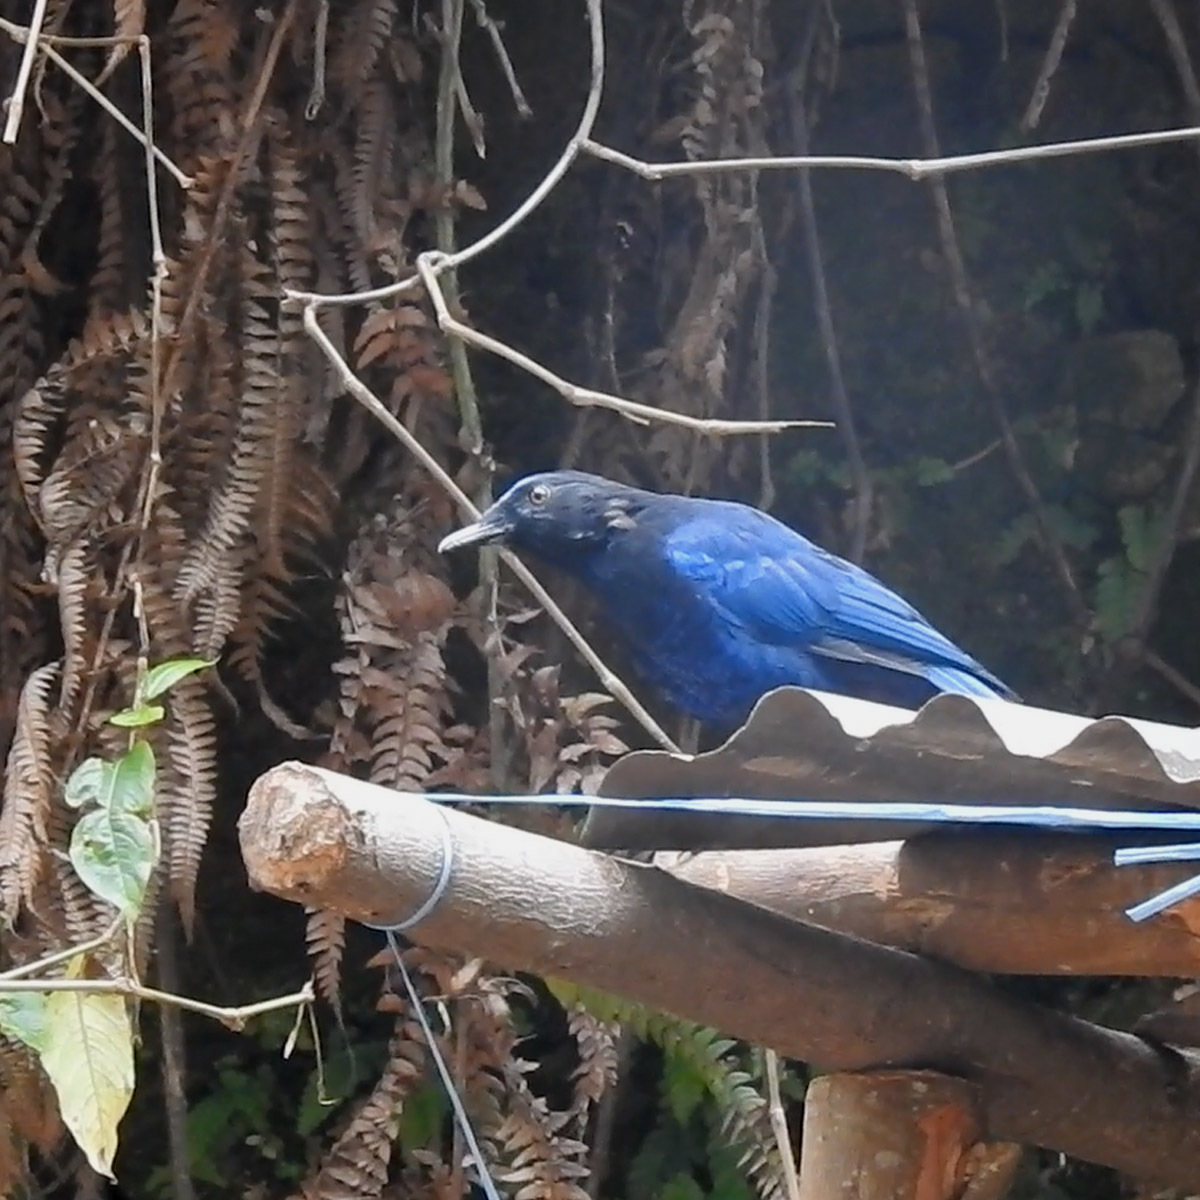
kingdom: Animalia
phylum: Chordata
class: Aves
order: Passeriformes
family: Muscicapidae
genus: Myophonus
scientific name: Myophonus horsfieldii
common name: Malabar whistling-thrush
